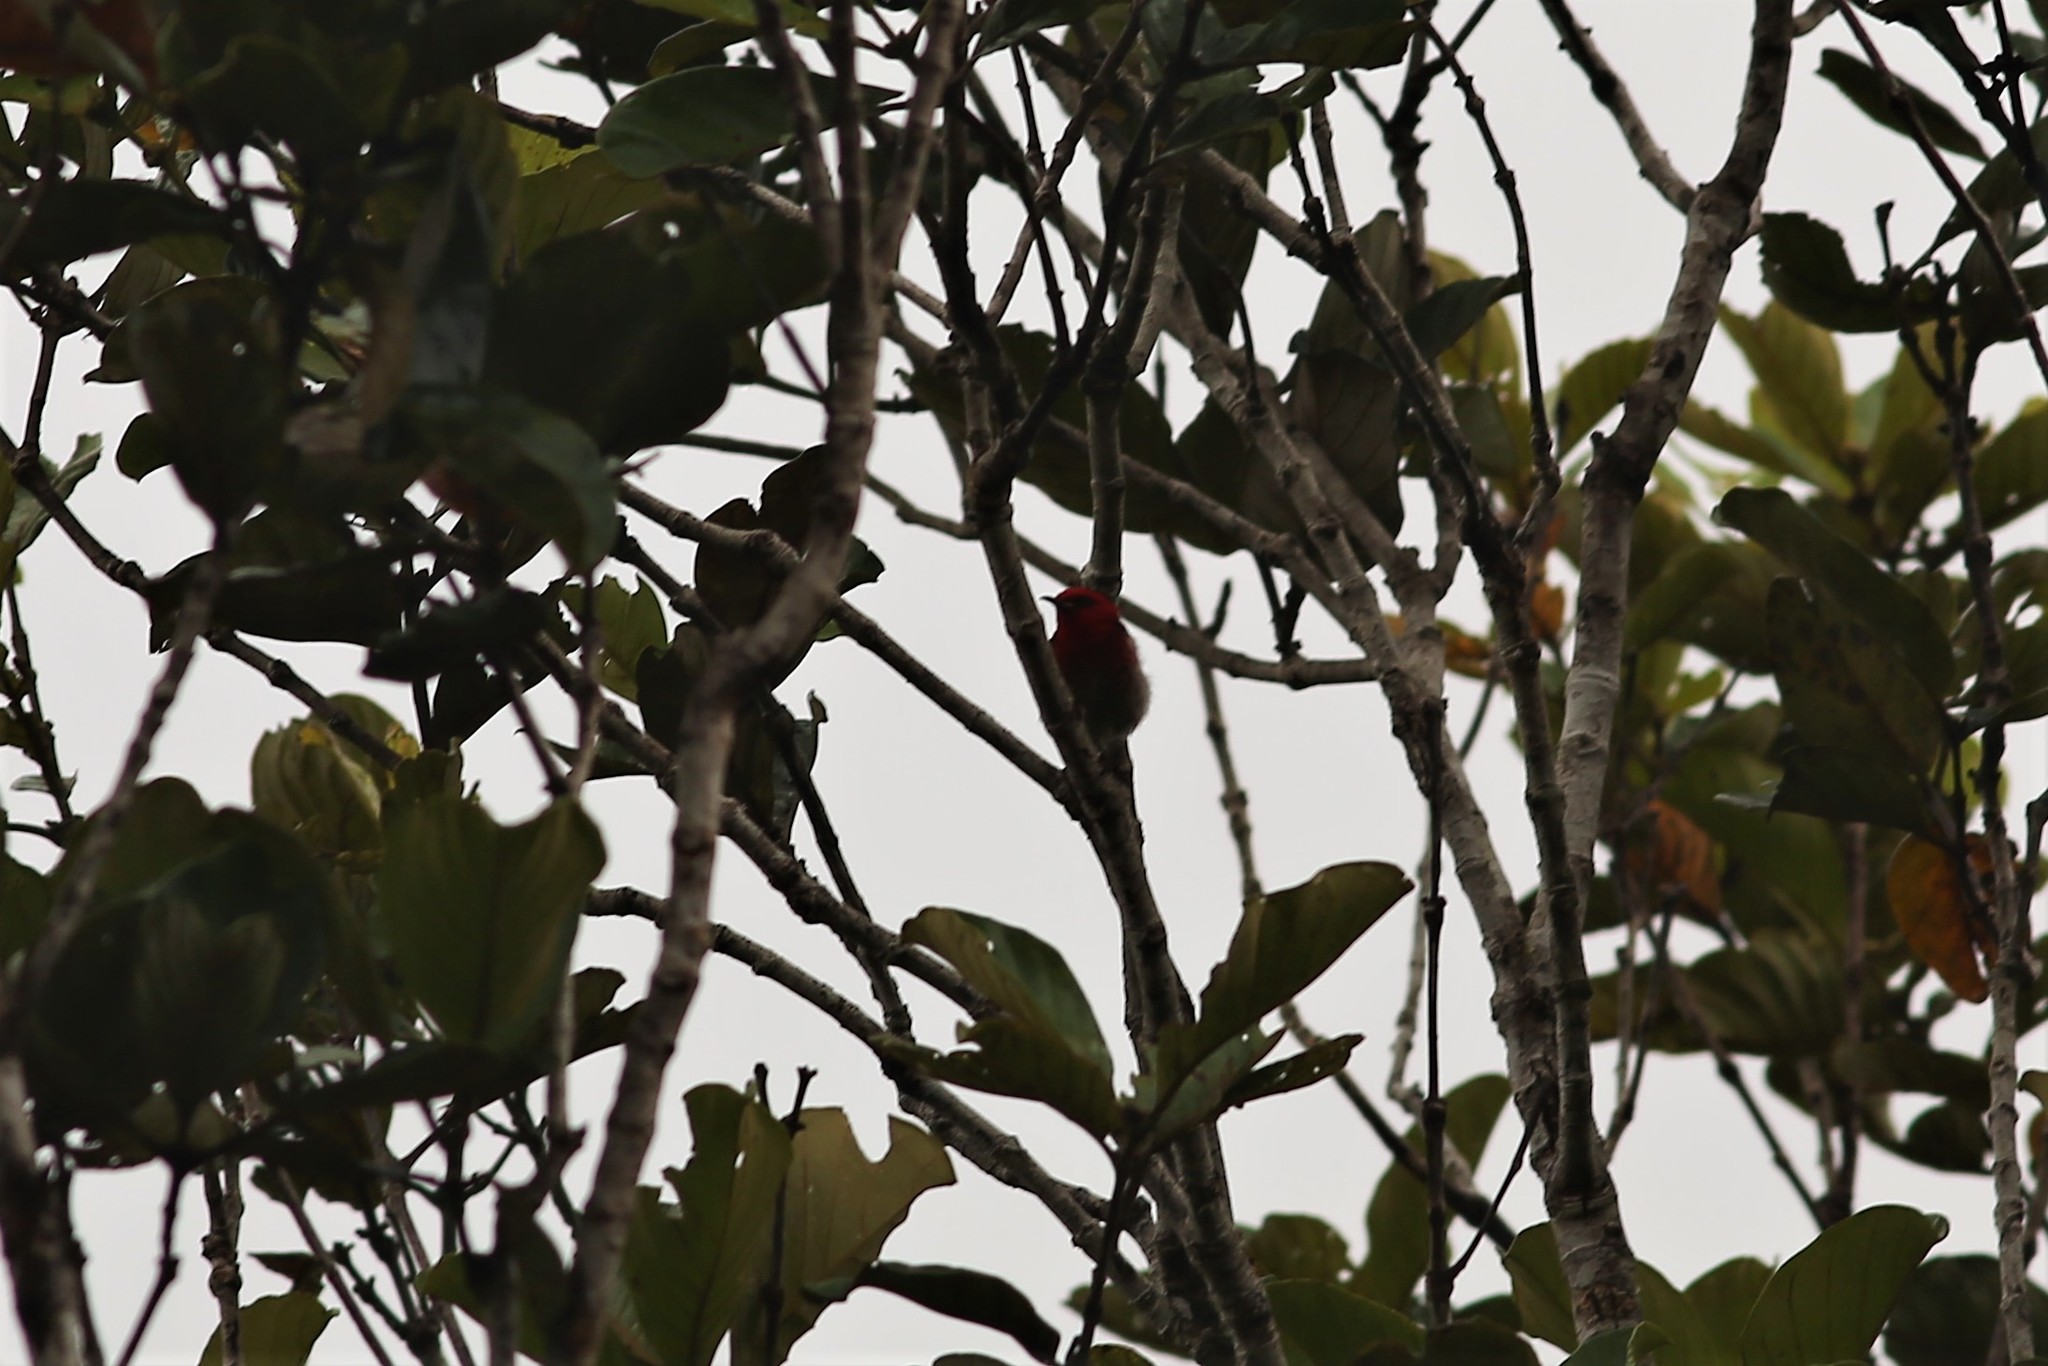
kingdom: Animalia
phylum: Chordata
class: Aves
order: Passeriformes
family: Meliphagidae
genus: Myzomela
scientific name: Myzomela caledonica
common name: New caledonian myzomela
